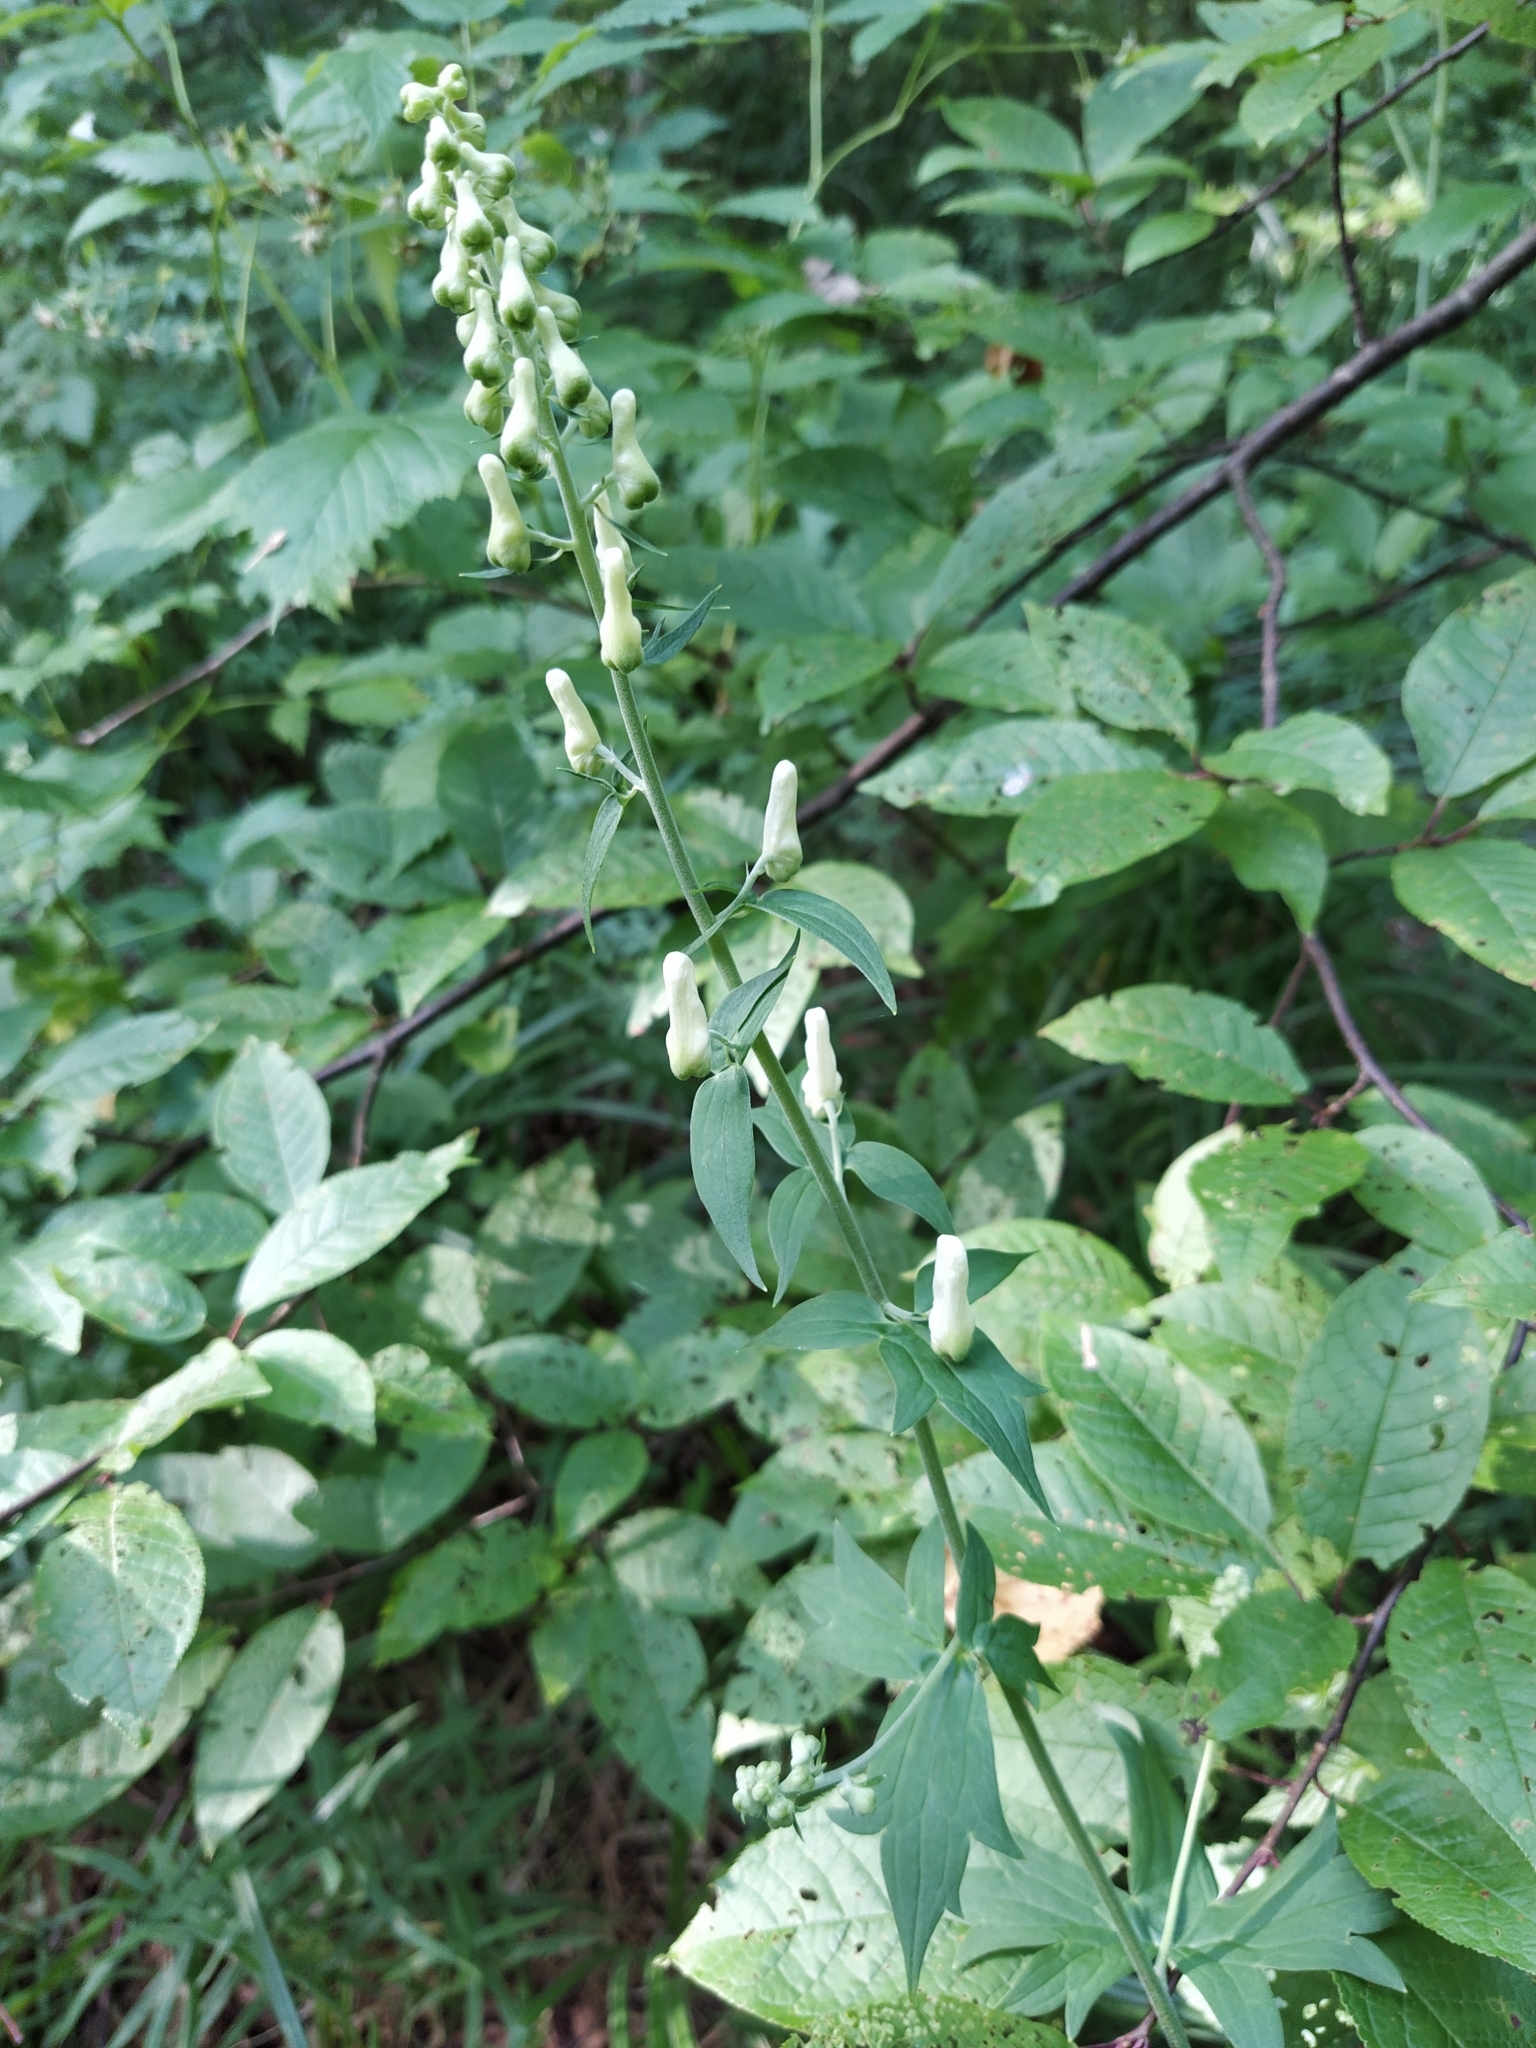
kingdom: Plantae
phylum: Tracheophyta
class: Magnoliopsida
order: Ranunculales
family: Ranunculaceae
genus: Aconitum
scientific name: Aconitum lasiostomum
